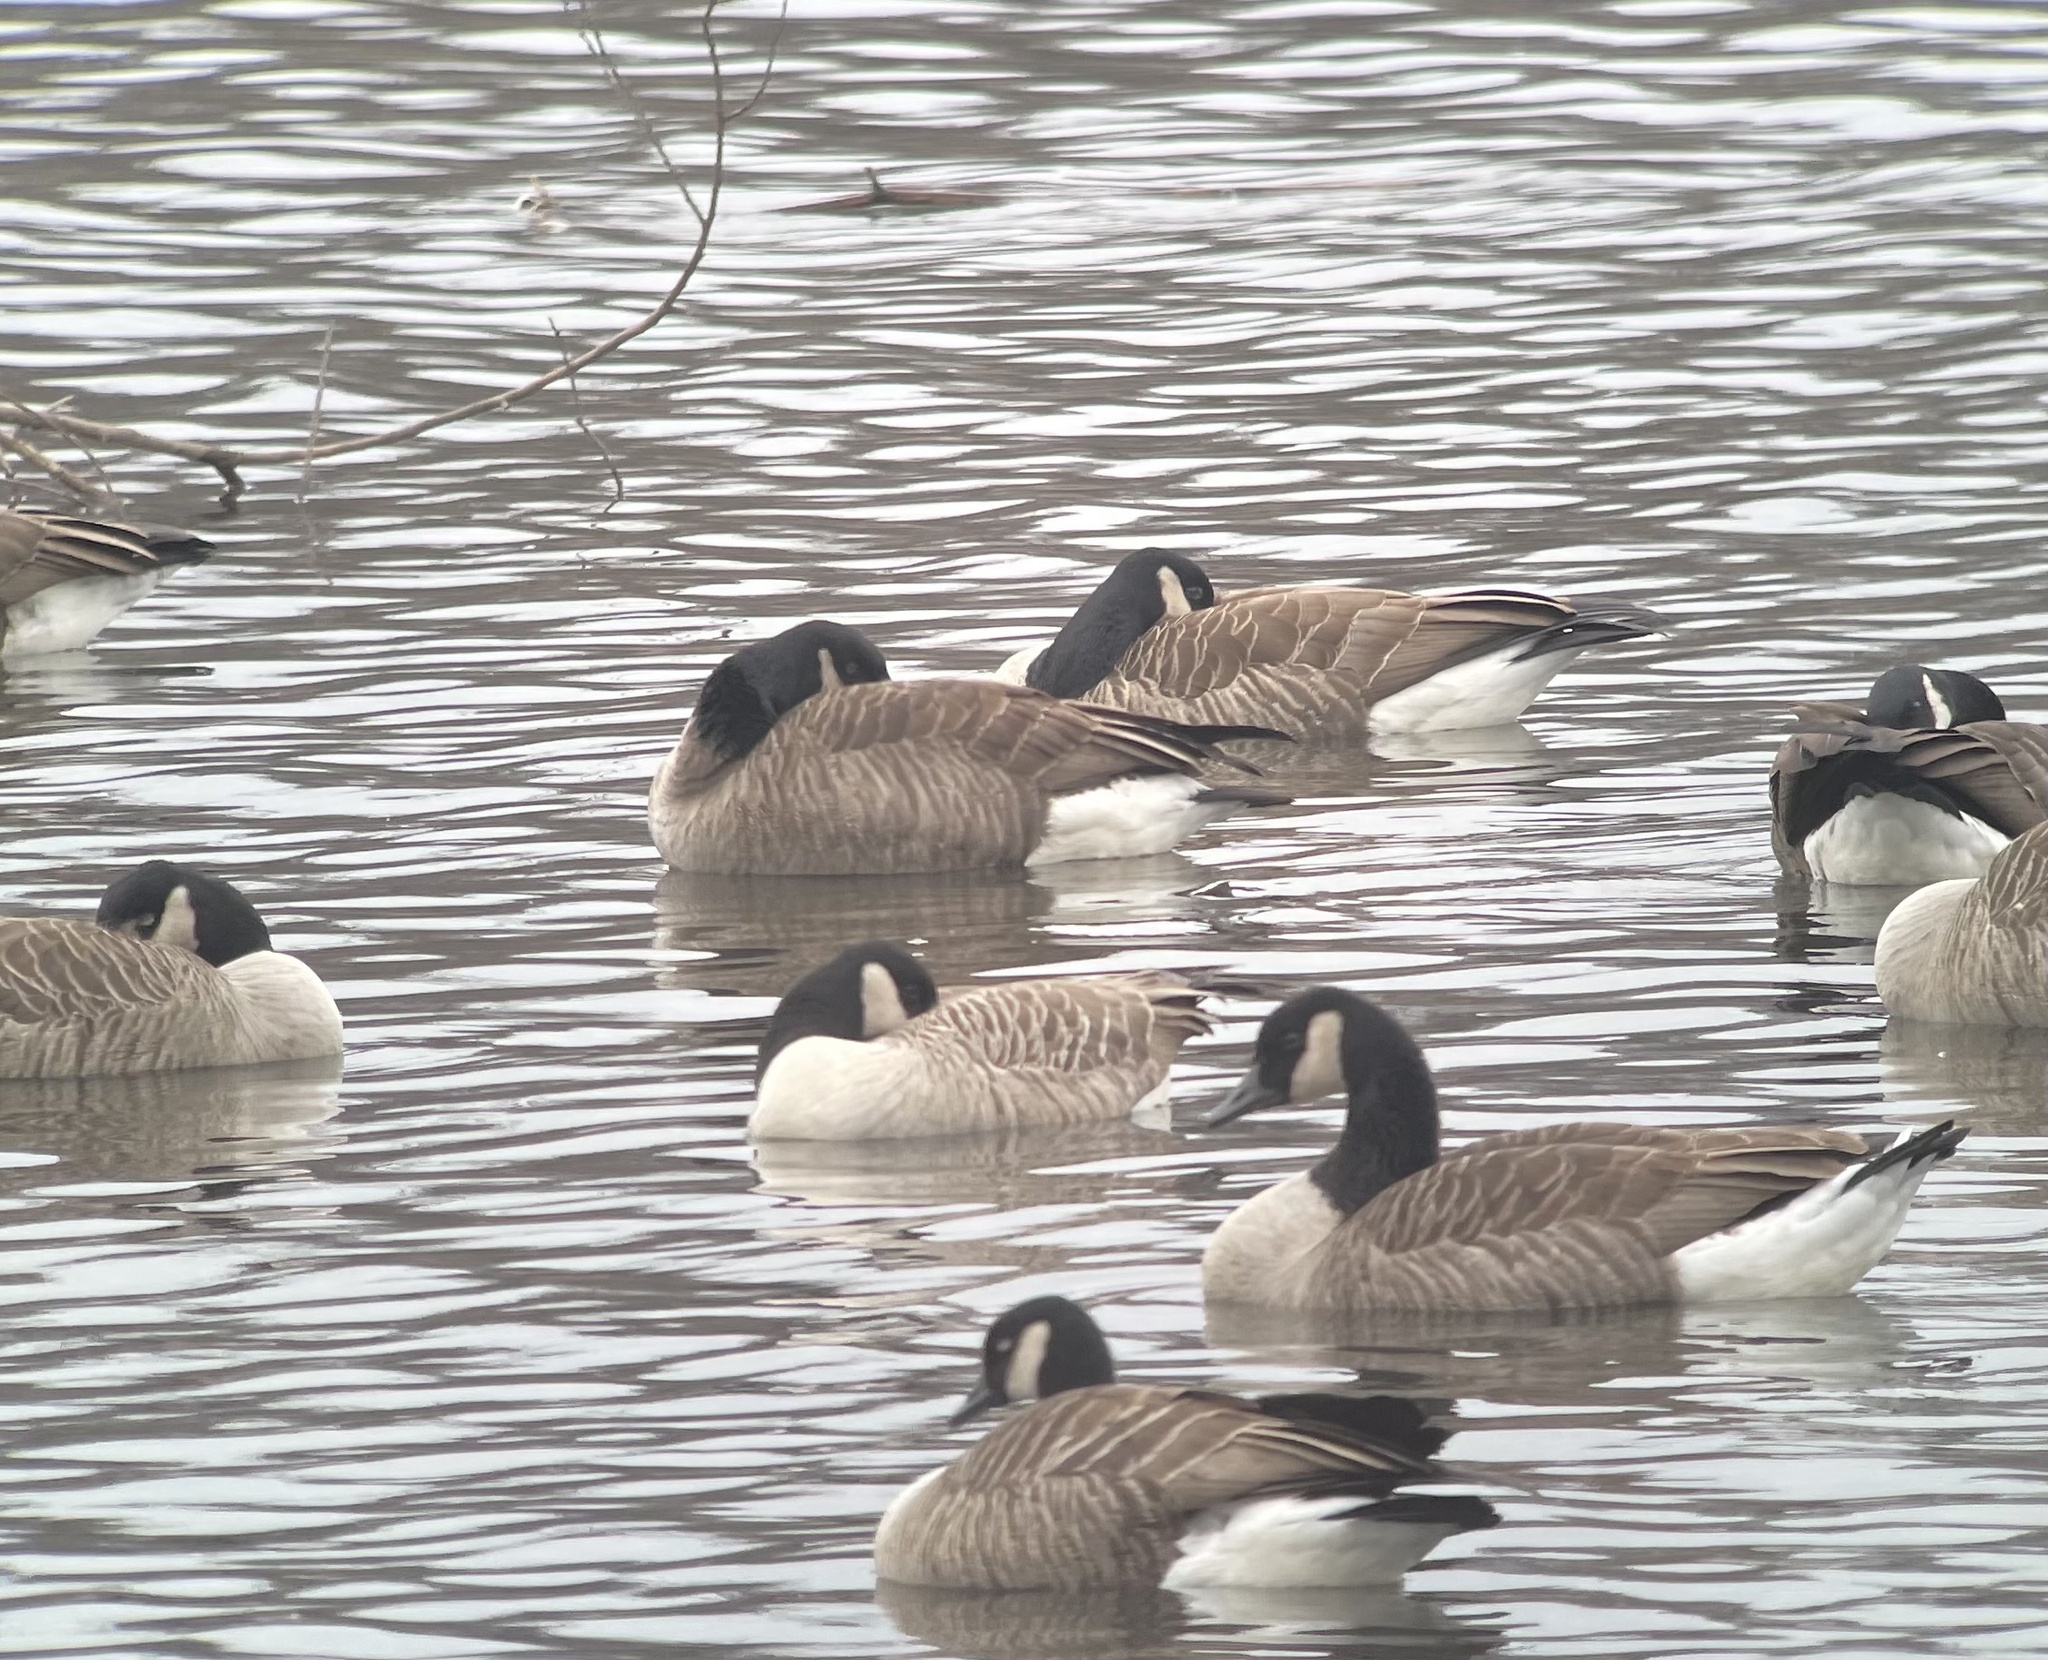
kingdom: Animalia
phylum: Chordata
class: Aves
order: Anseriformes
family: Anatidae
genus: Branta
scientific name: Branta canadensis
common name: Canada goose
